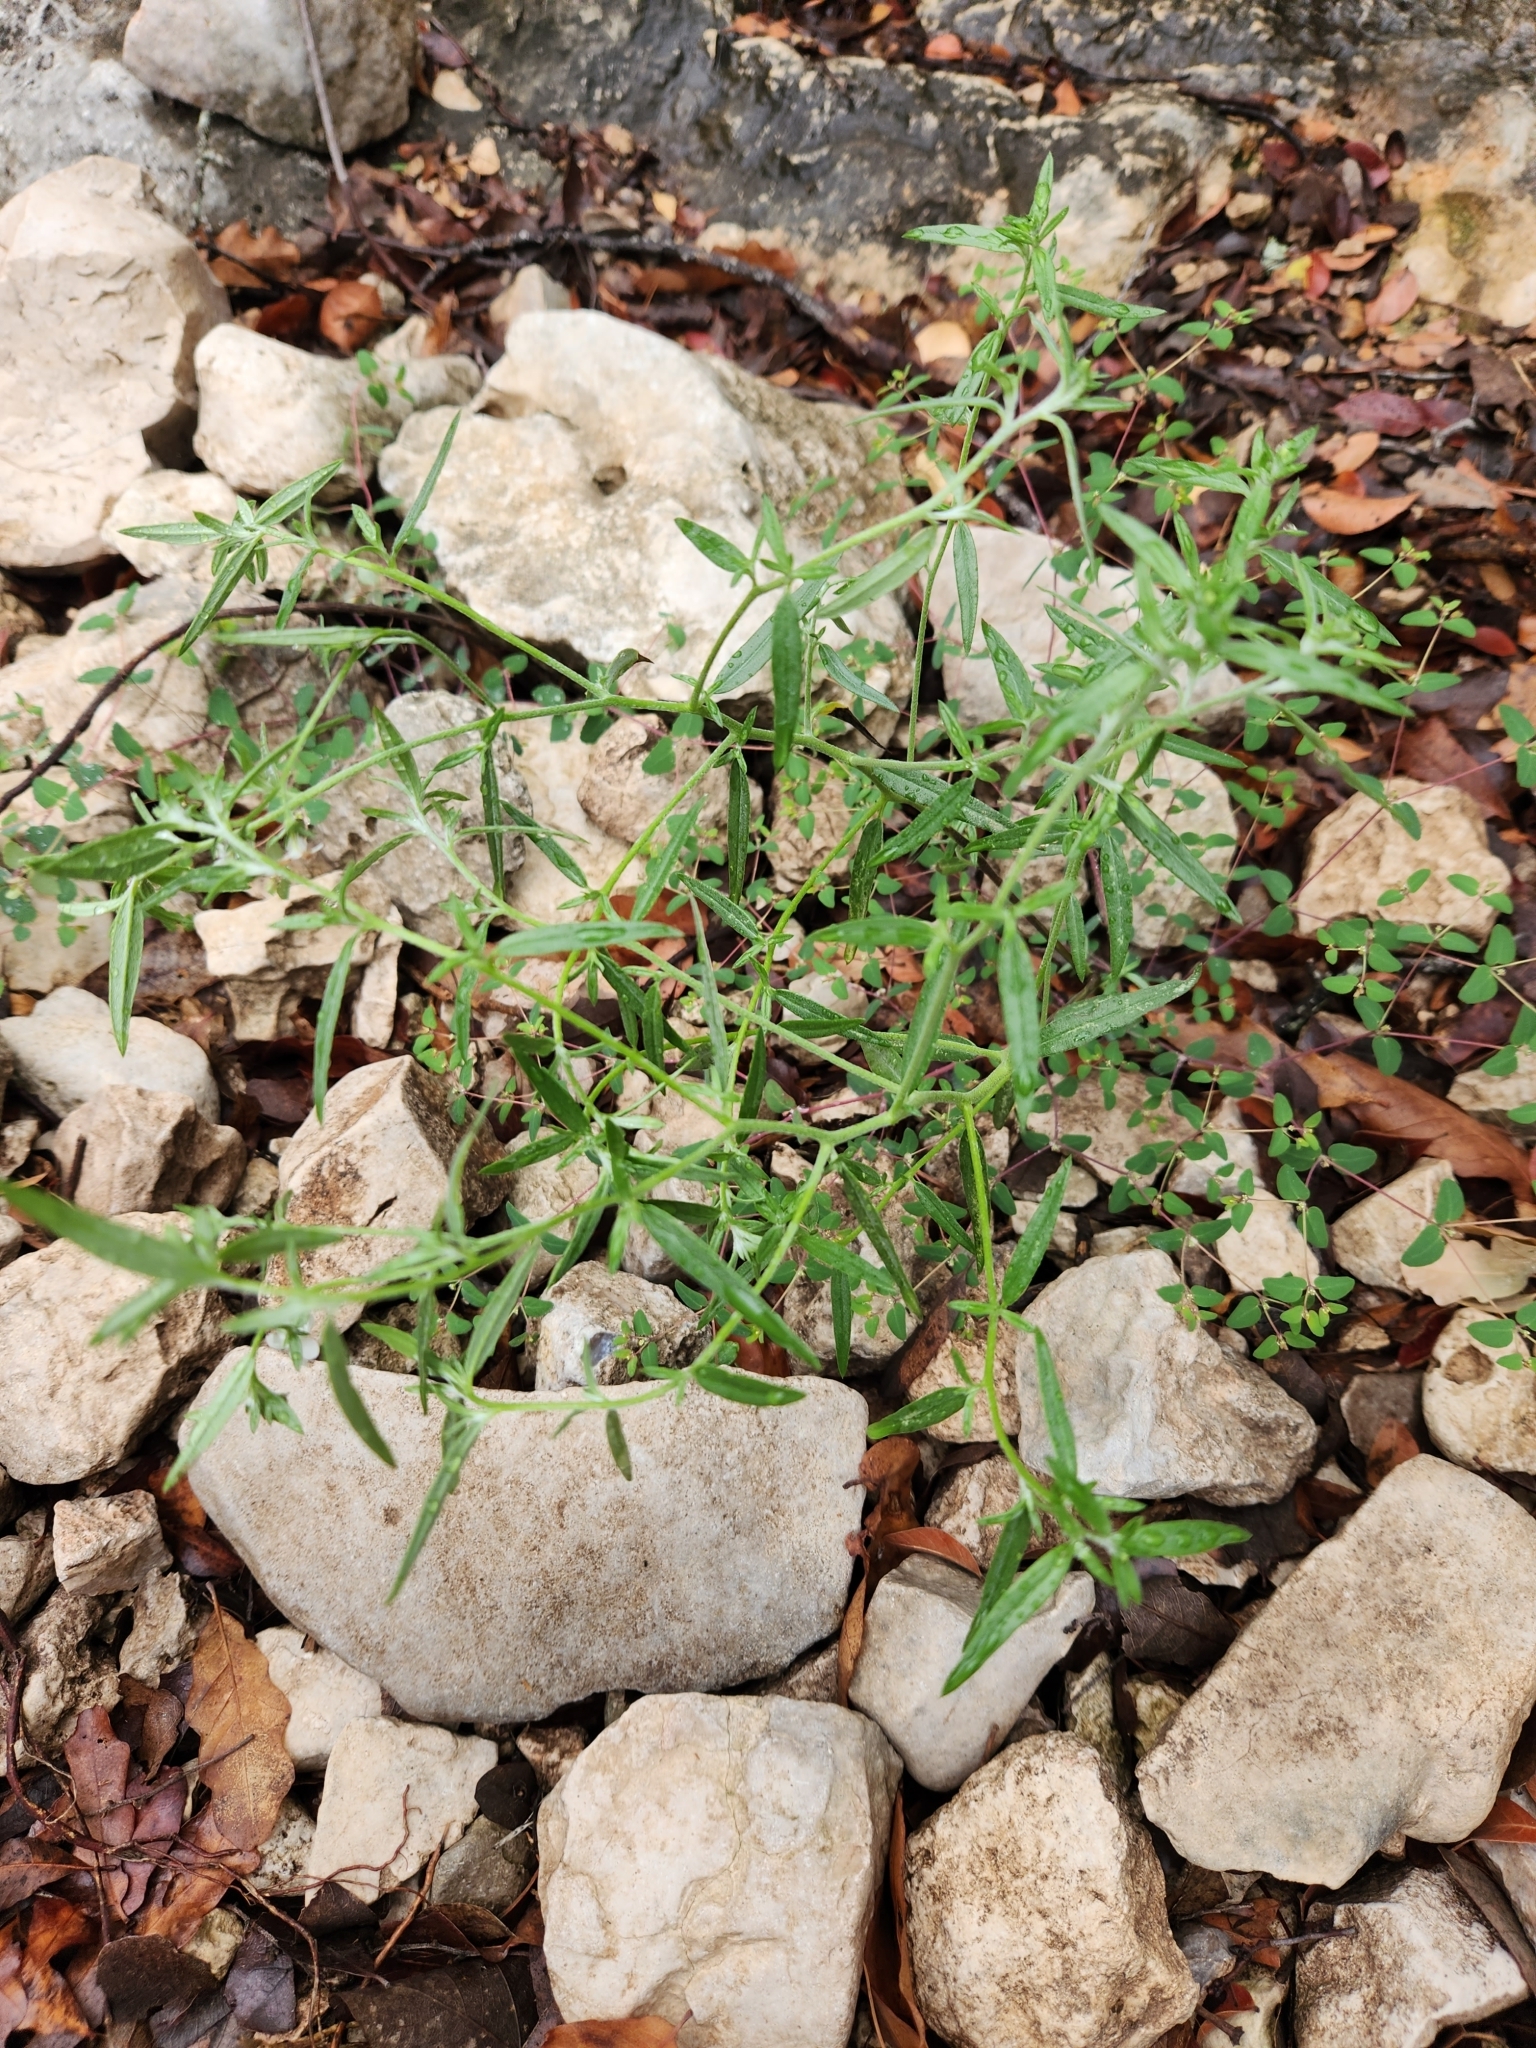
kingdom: Plantae
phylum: Tracheophyta
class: Magnoliopsida
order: Boraginales
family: Heliotropiaceae
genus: Euploca
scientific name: Euploca tenella
